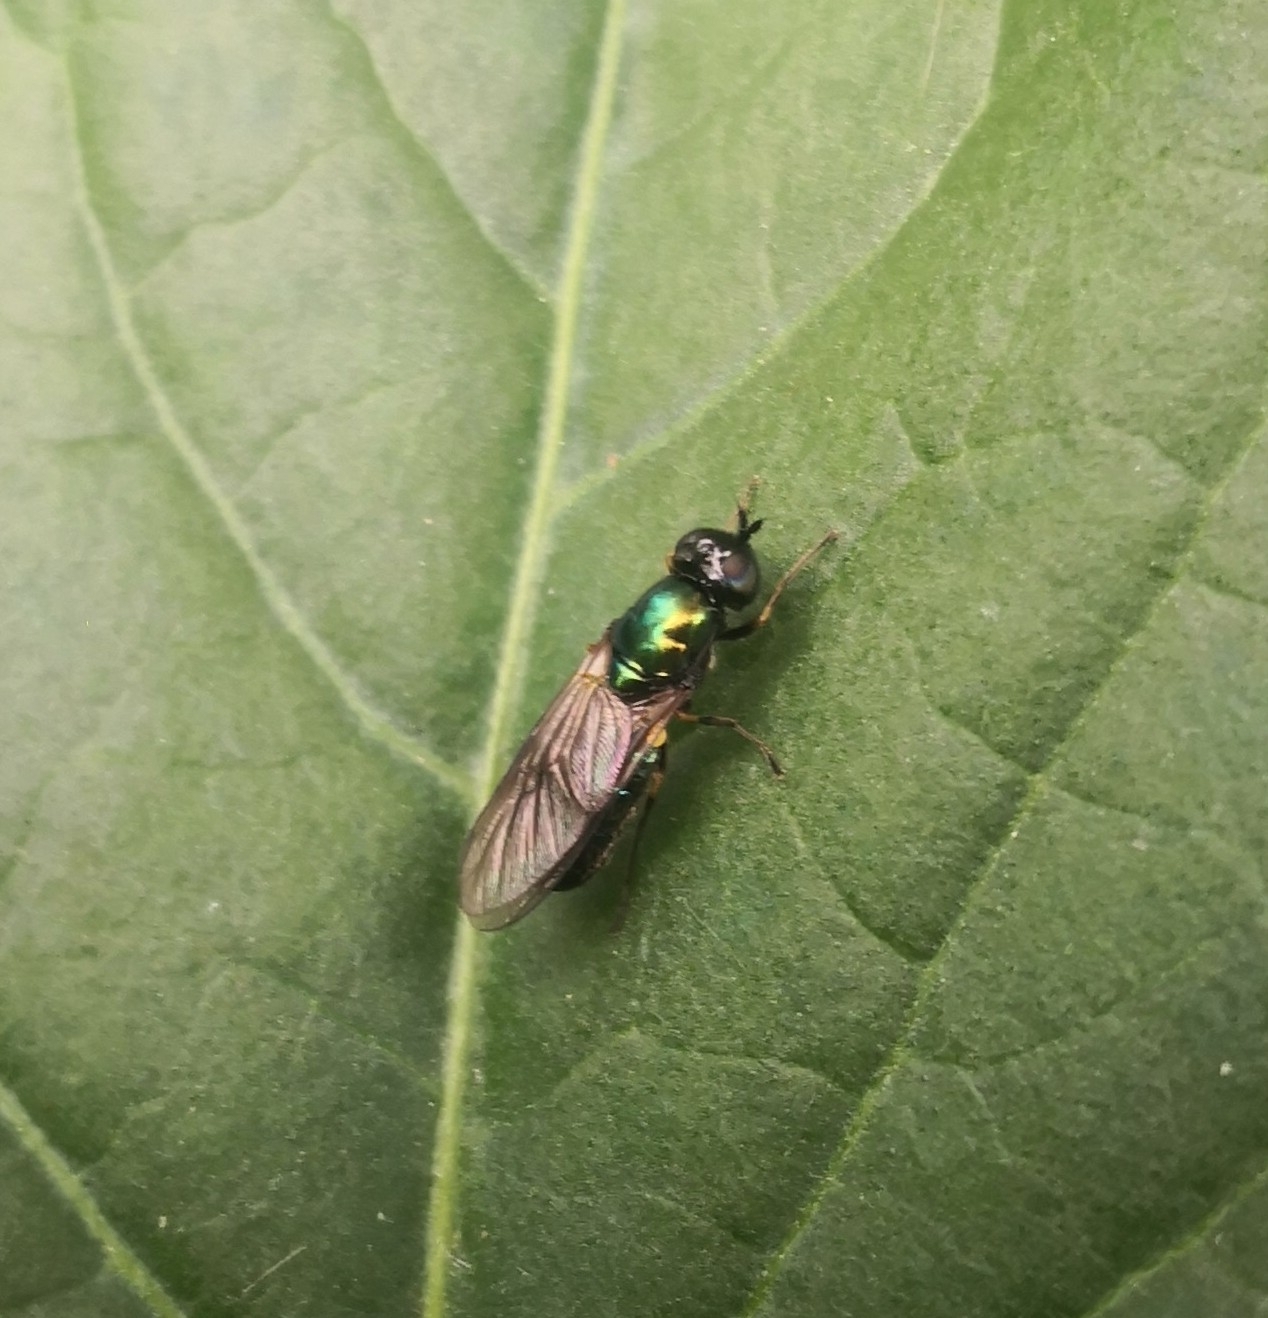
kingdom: Animalia
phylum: Arthropoda
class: Insecta
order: Diptera
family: Stratiomyidae
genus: Chloromyia
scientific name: Chloromyia formosa
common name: Soldier fly
